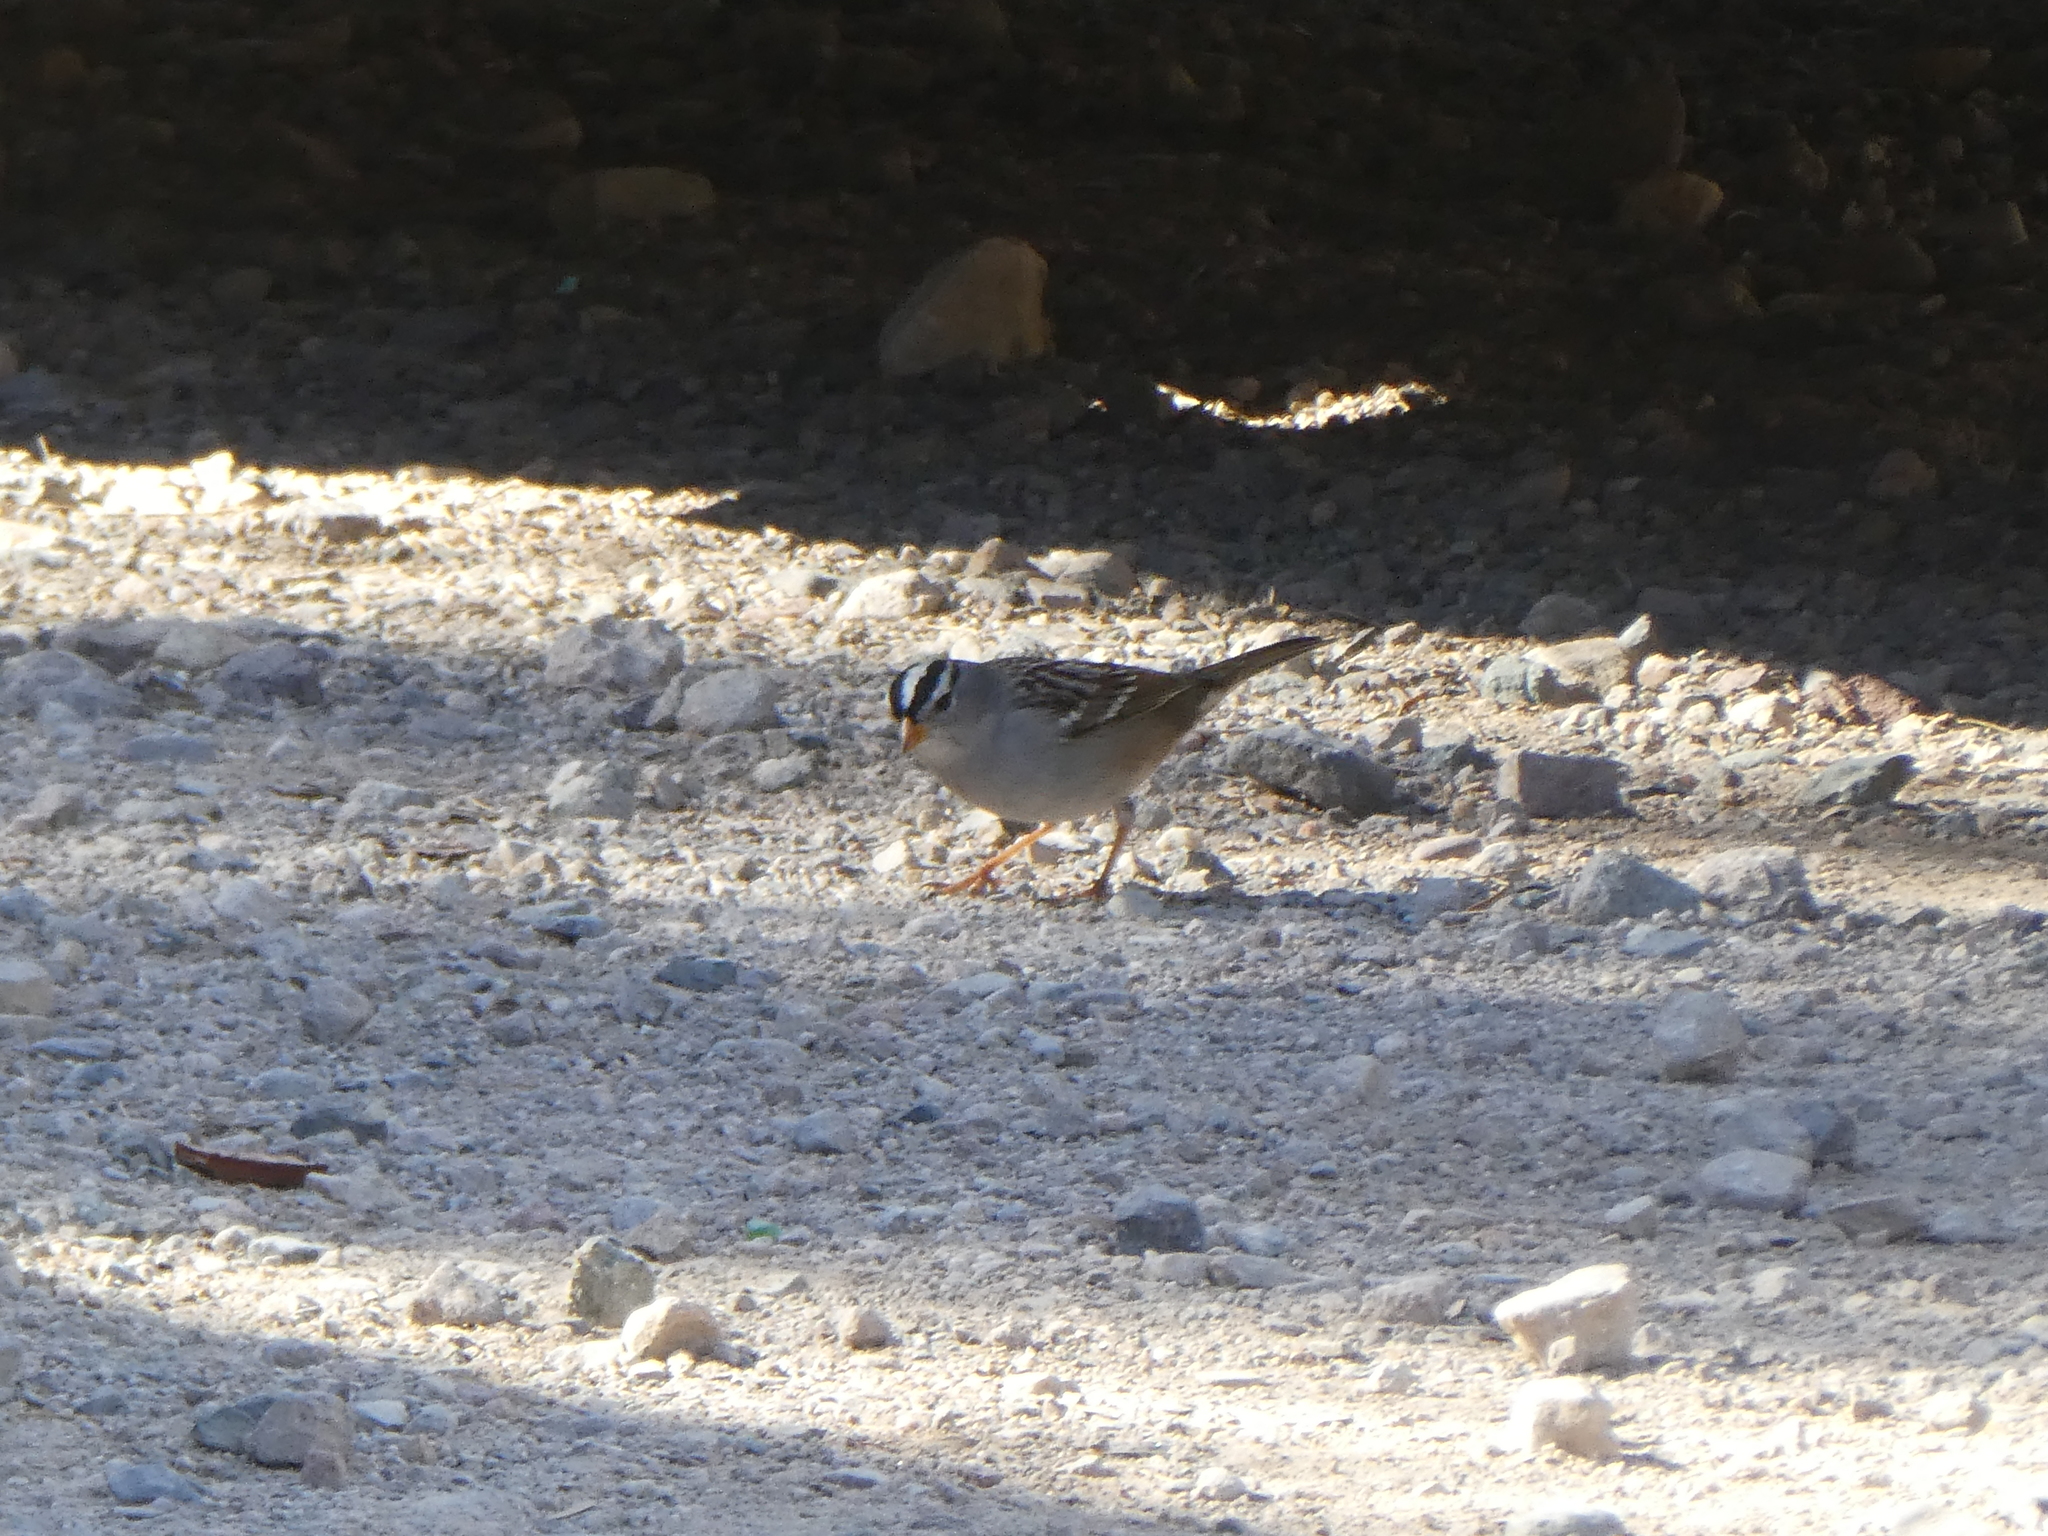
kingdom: Animalia
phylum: Chordata
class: Aves
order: Passeriformes
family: Passerellidae
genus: Zonotrichia
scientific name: Zonotrichia leucophrys
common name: White-crowned sparrow
